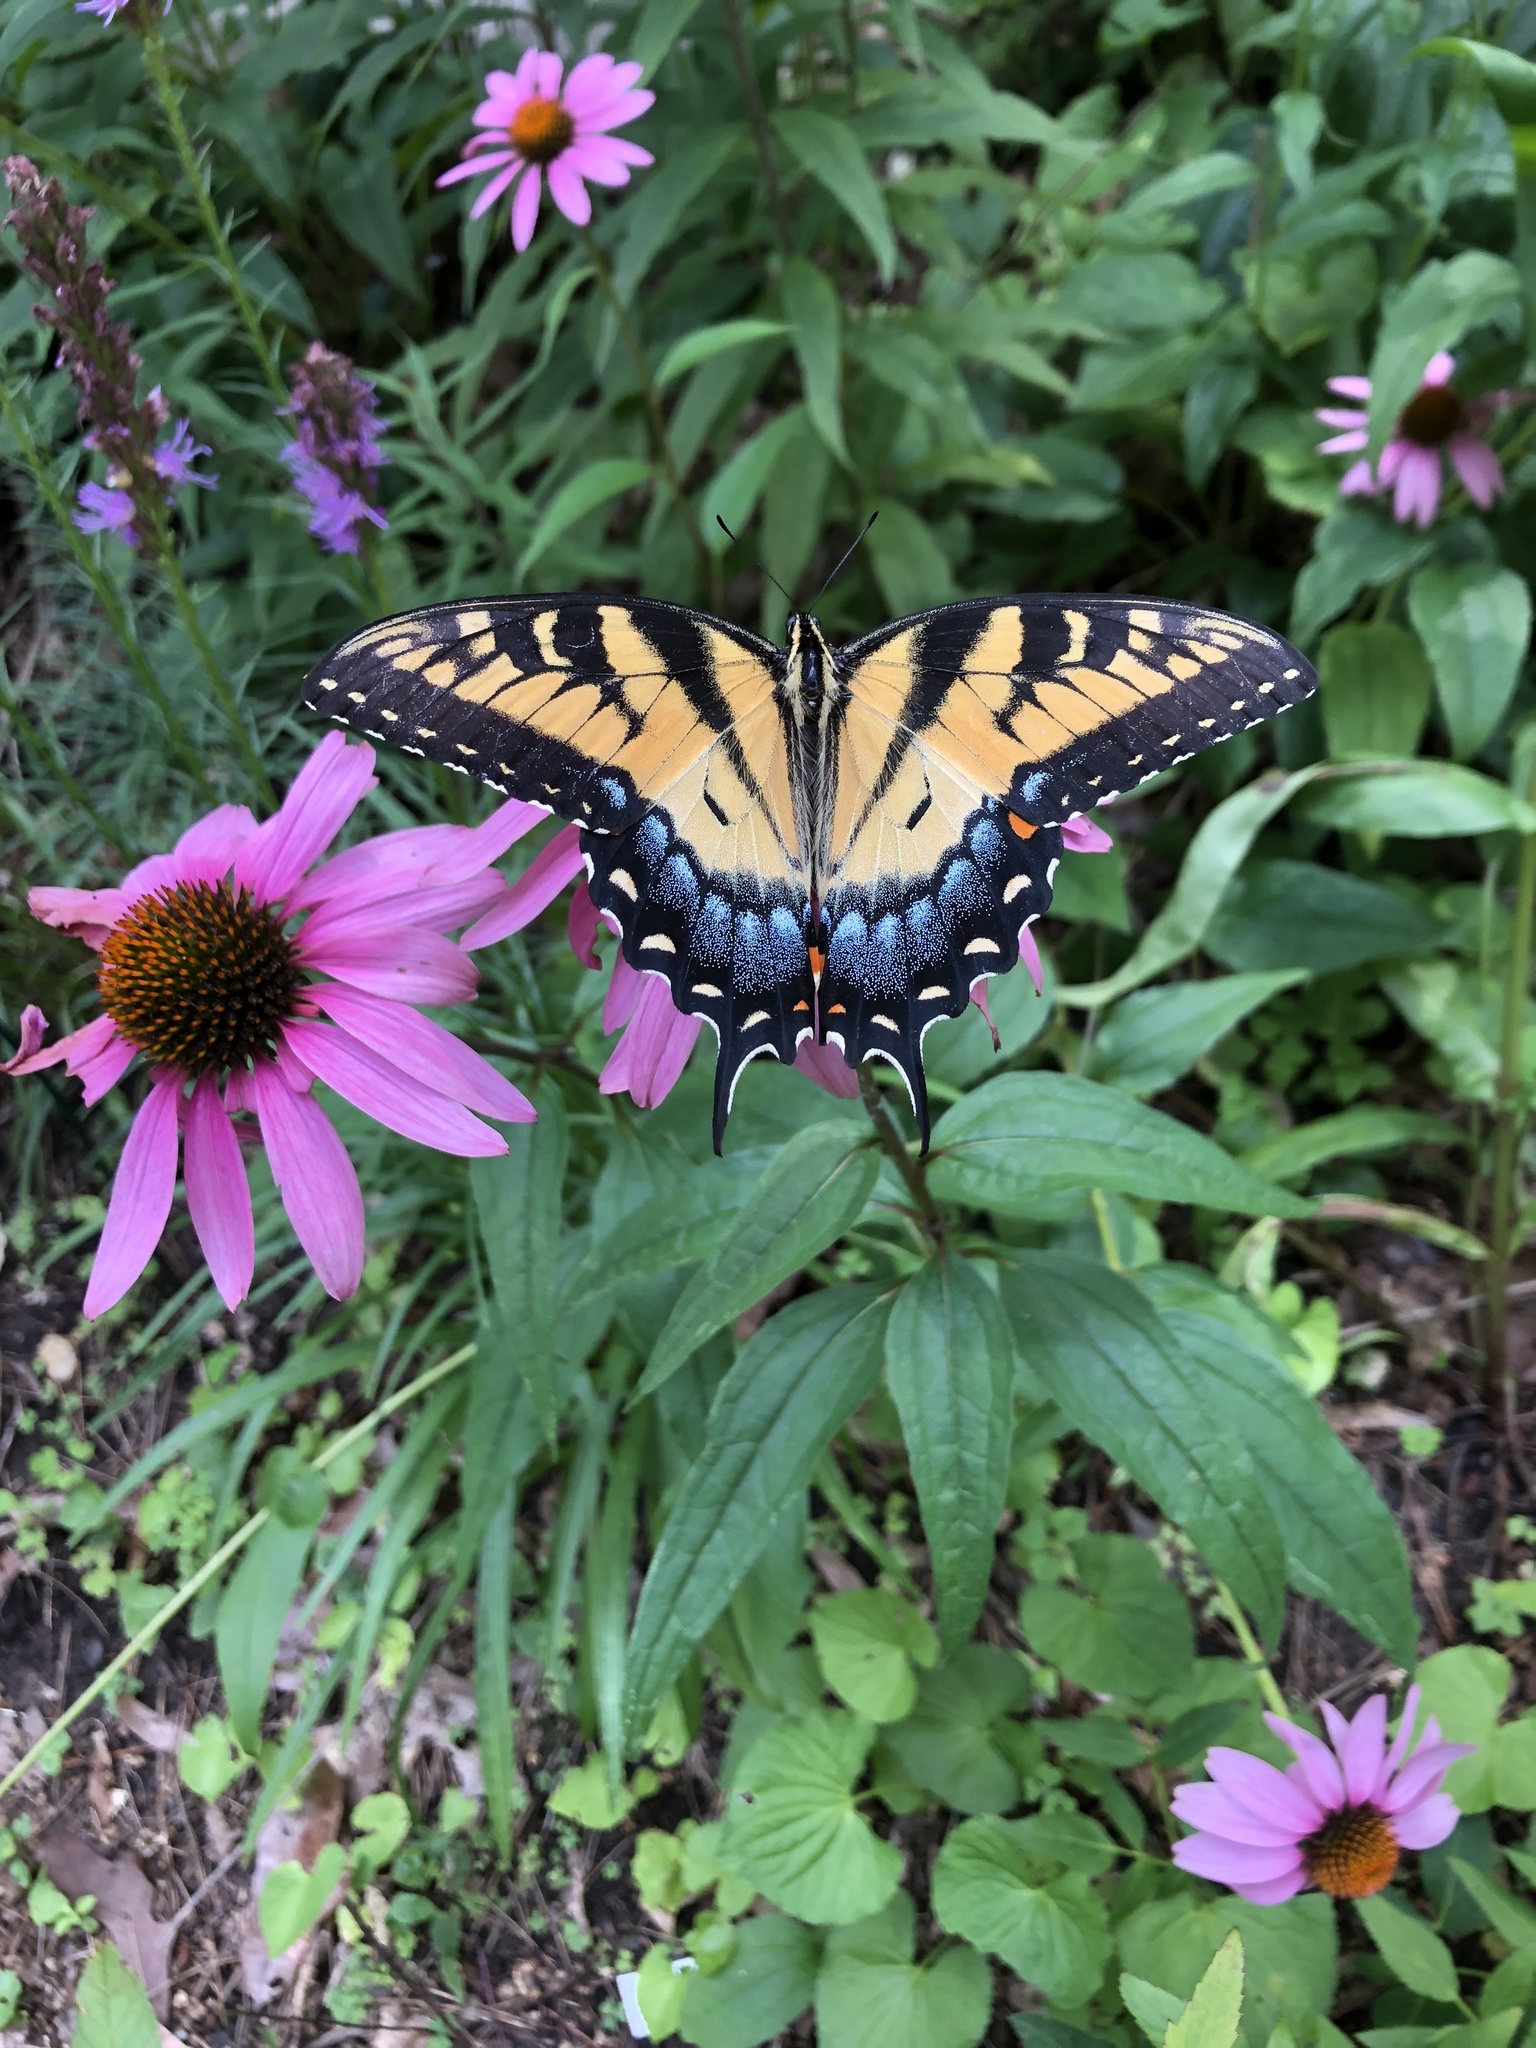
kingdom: Animalia
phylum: Arthropoda
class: Insecta
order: Lepidoptera
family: Papilionidae
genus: Papilio
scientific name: Papilio glaucus
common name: Tiger swallowtail
